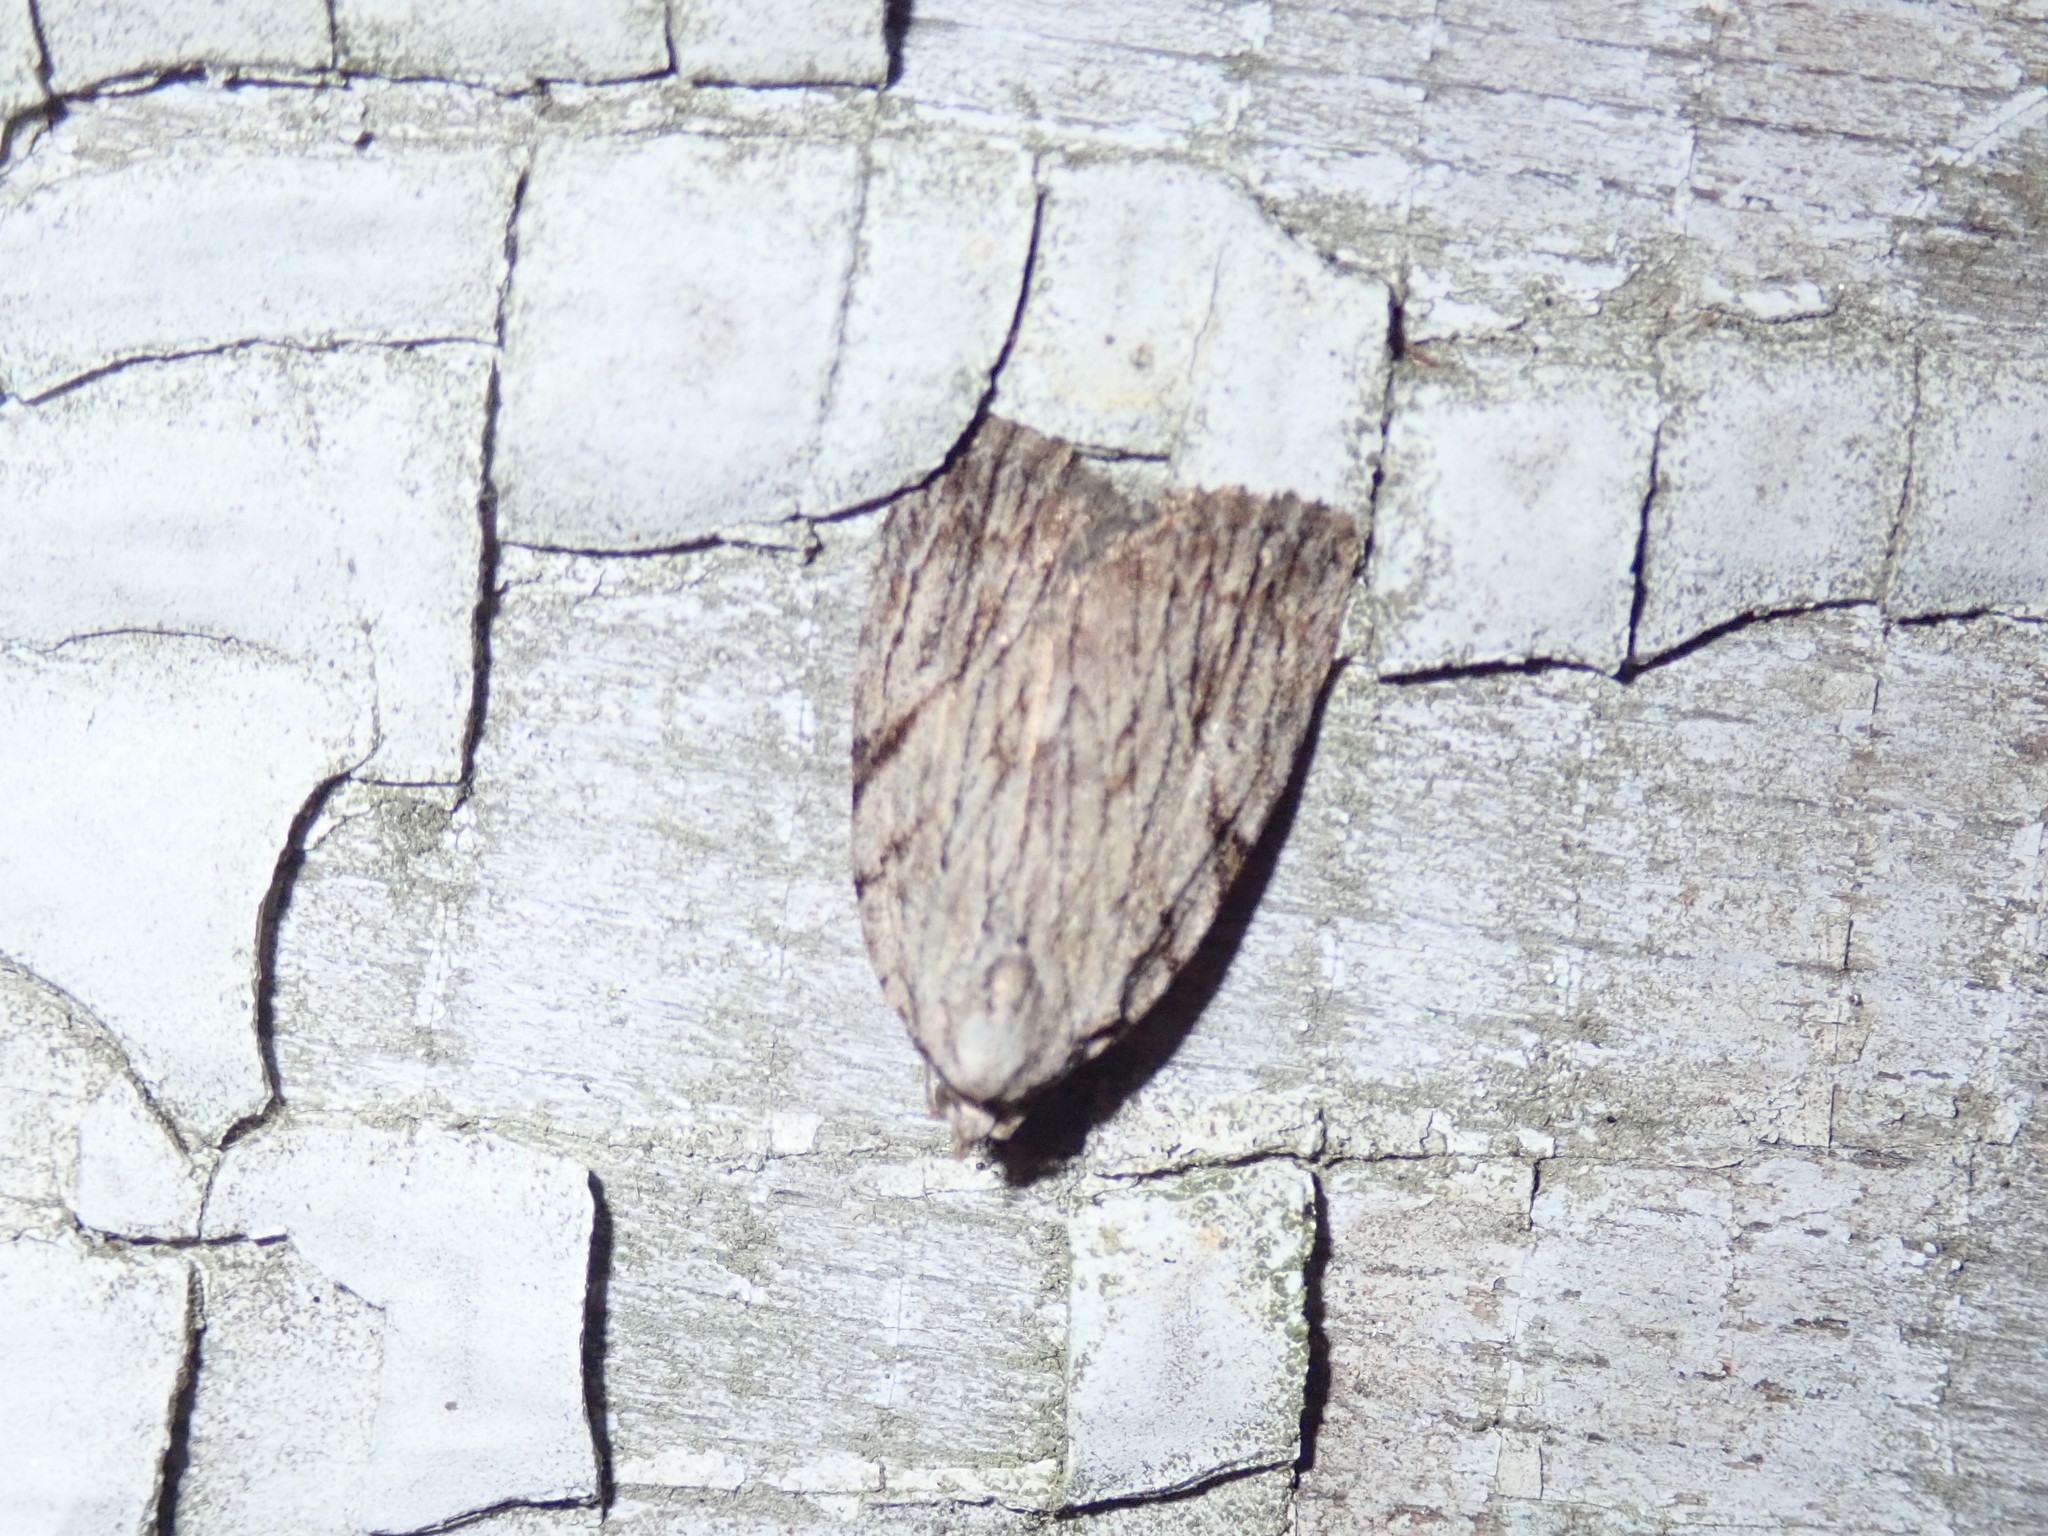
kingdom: Animalia
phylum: Arthropoda
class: Insecta
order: Lepidoptera
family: Noctuidae
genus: Balsa
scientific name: Balsa tristrigella
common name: Three-lined balsa moth
